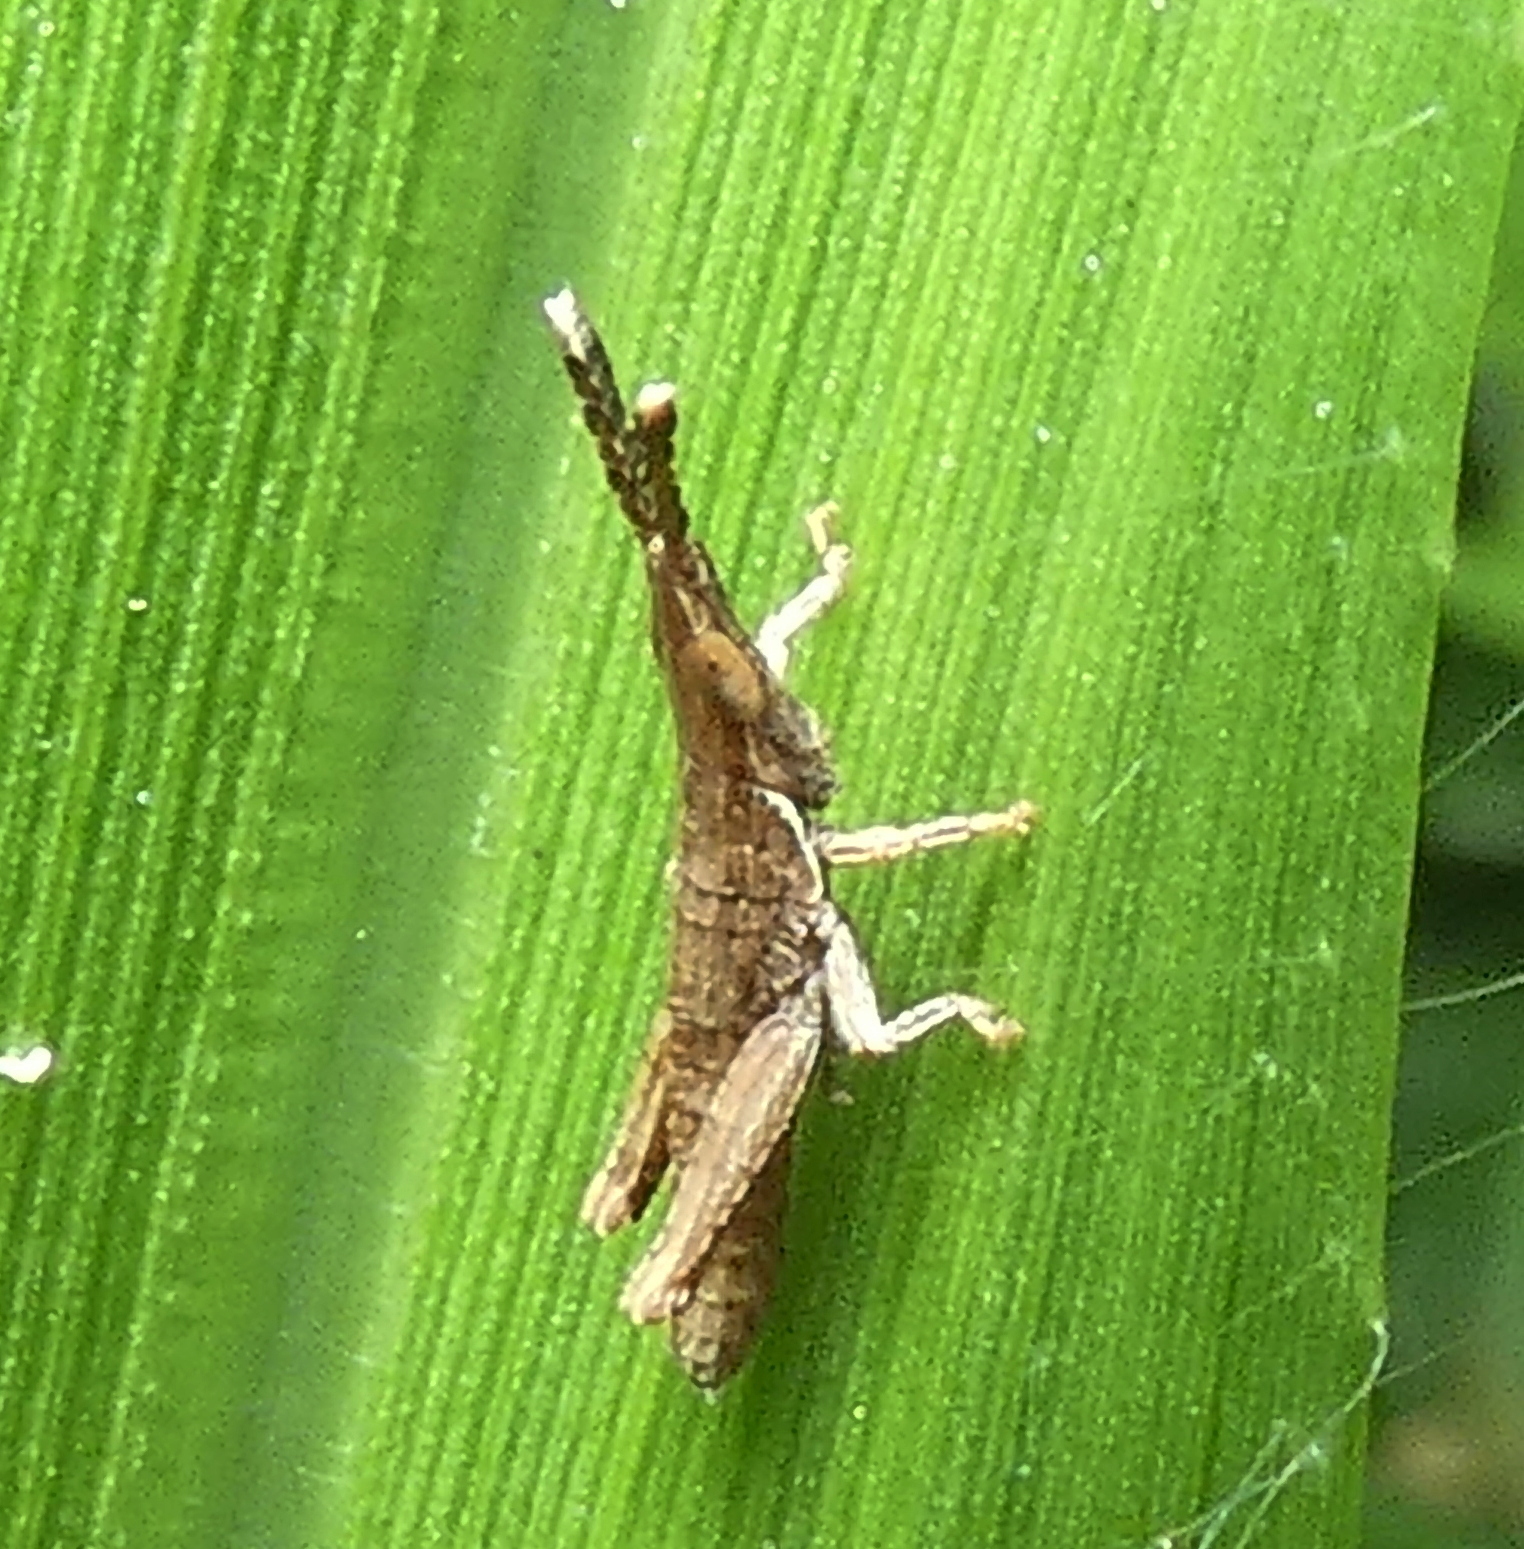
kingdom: Animalia
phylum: Arthropoda
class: Insecta
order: Orthoptera
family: Pyrgomorphidae
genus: Algete
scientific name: Algete brunneri
